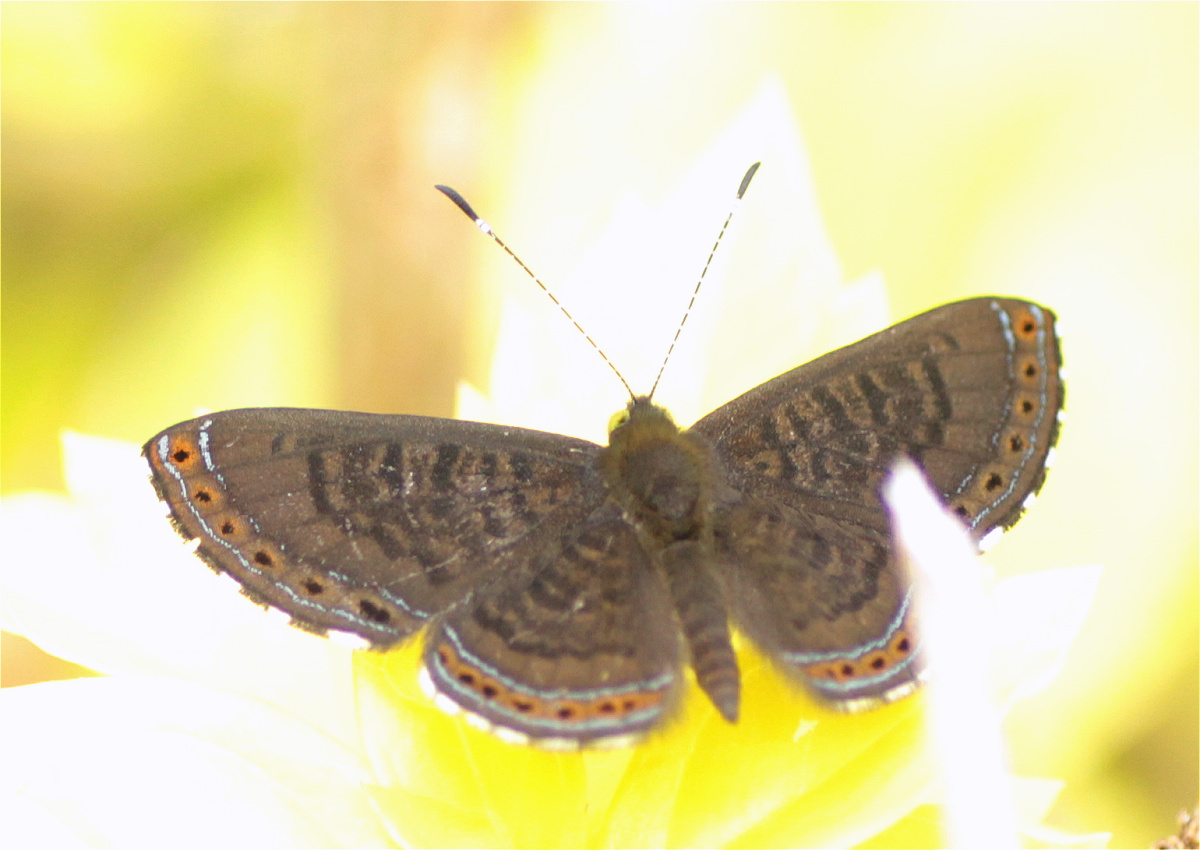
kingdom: Animalia
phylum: Arthropoda
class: Insecta
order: Lepidoptera
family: Riodinidae
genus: Detritivora
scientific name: Detritivora
